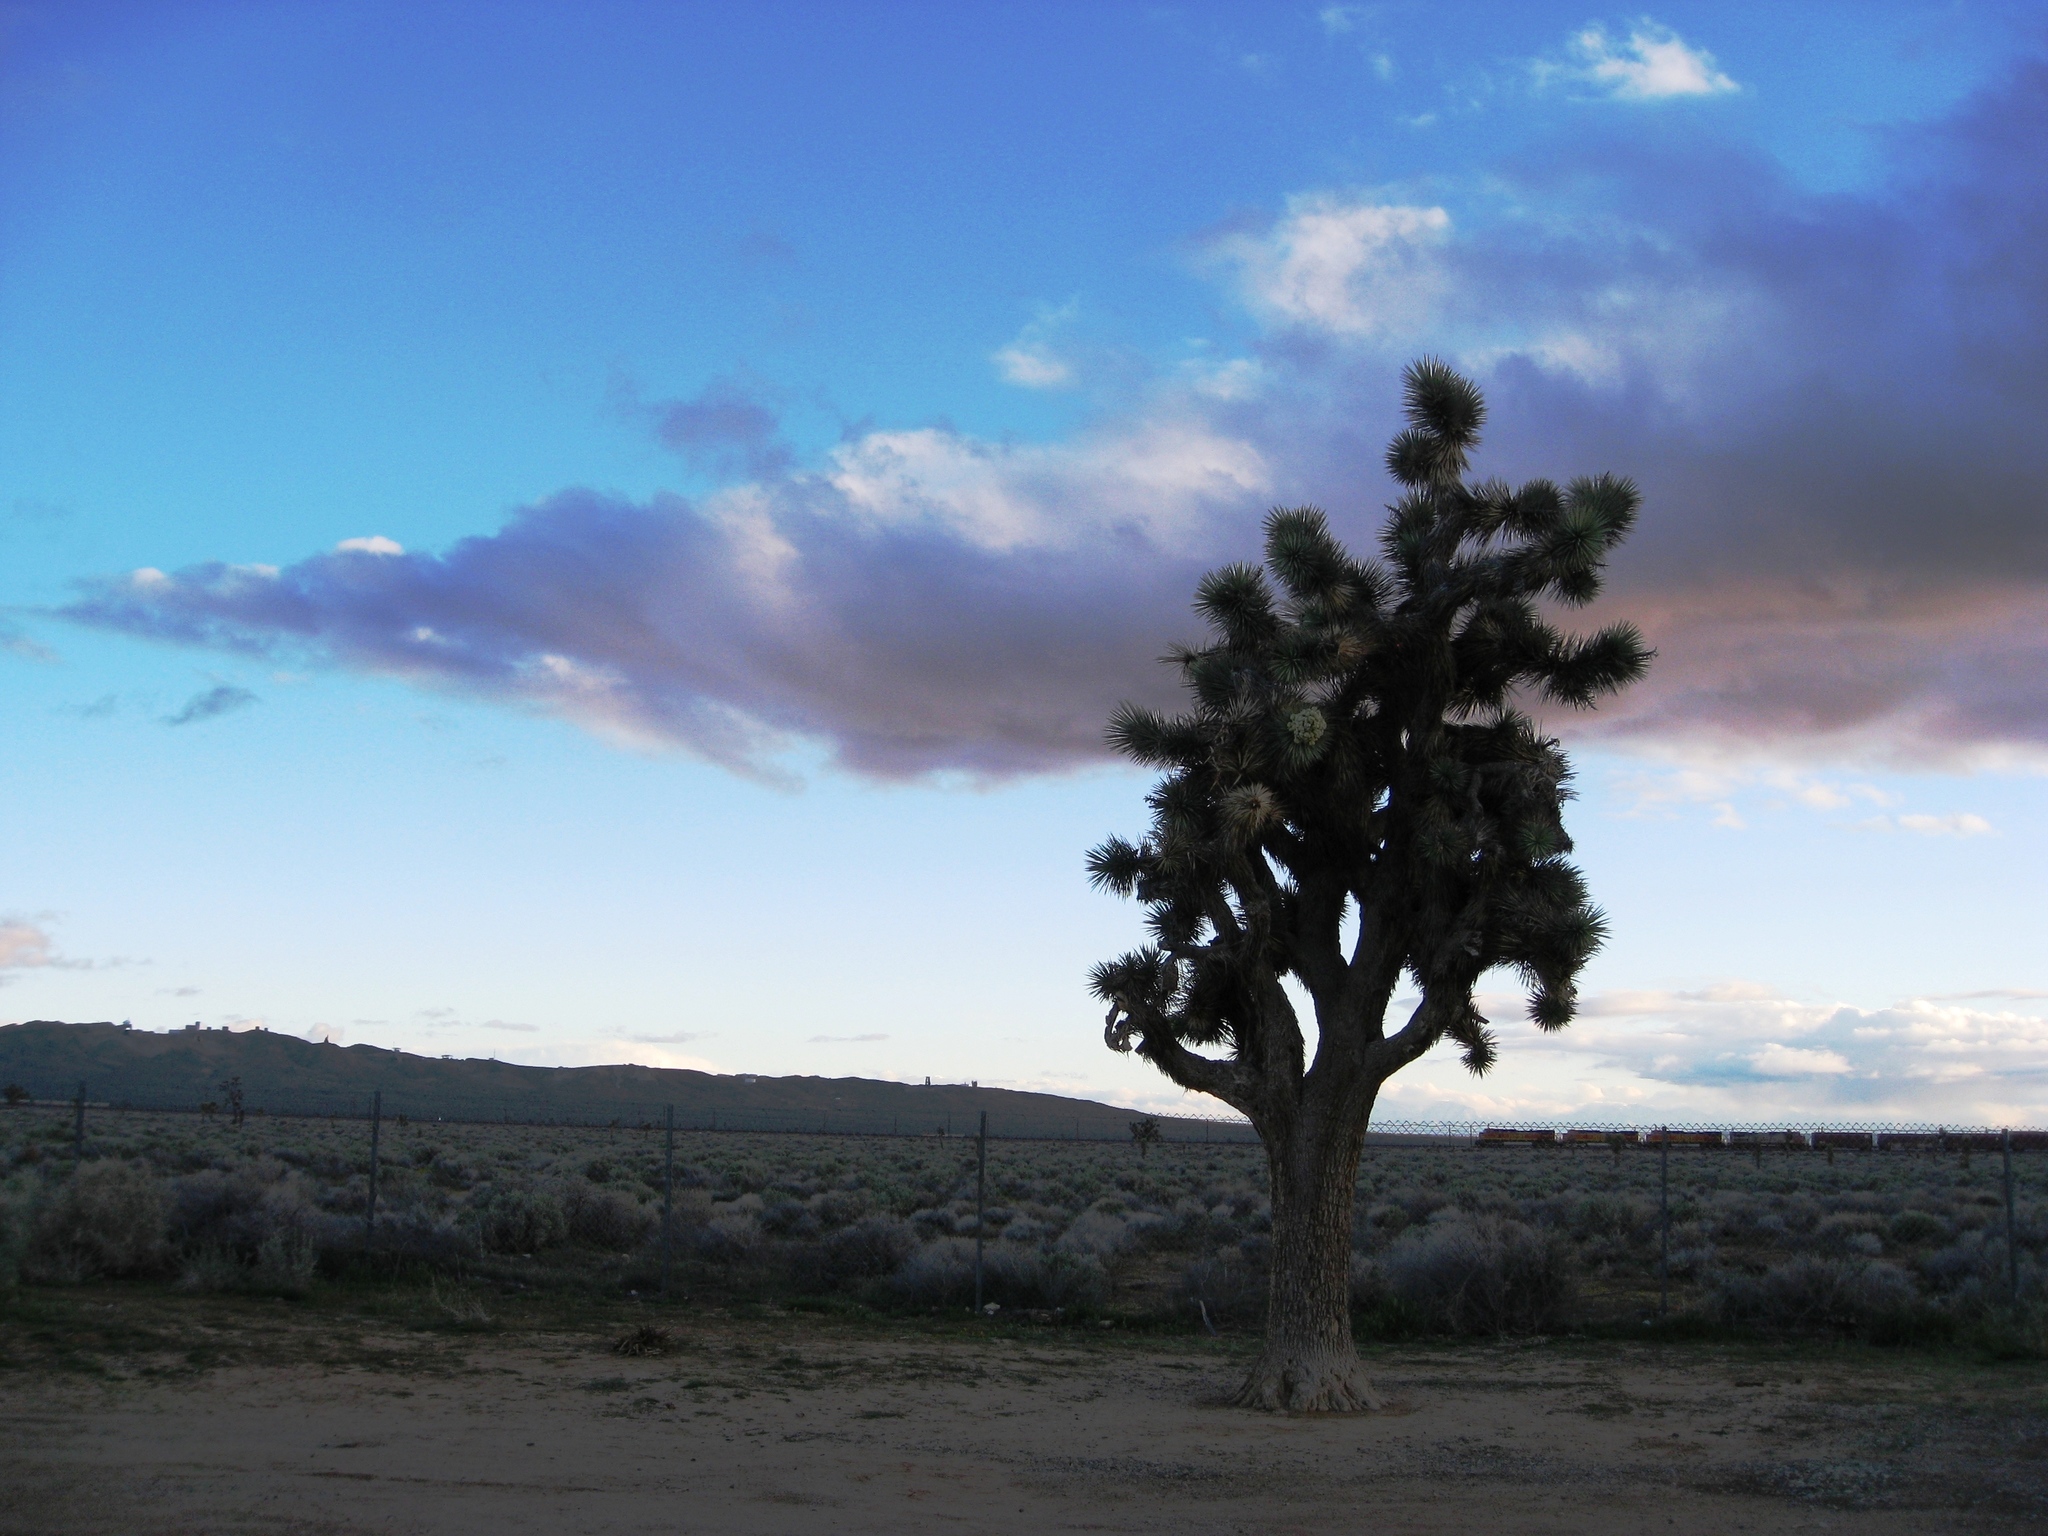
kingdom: Plantae
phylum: Tracheophyta
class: Liliopsida
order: Asparagales
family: Asparagaceae
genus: Yucca
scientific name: Yucca brevifolia
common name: Joshua tree
